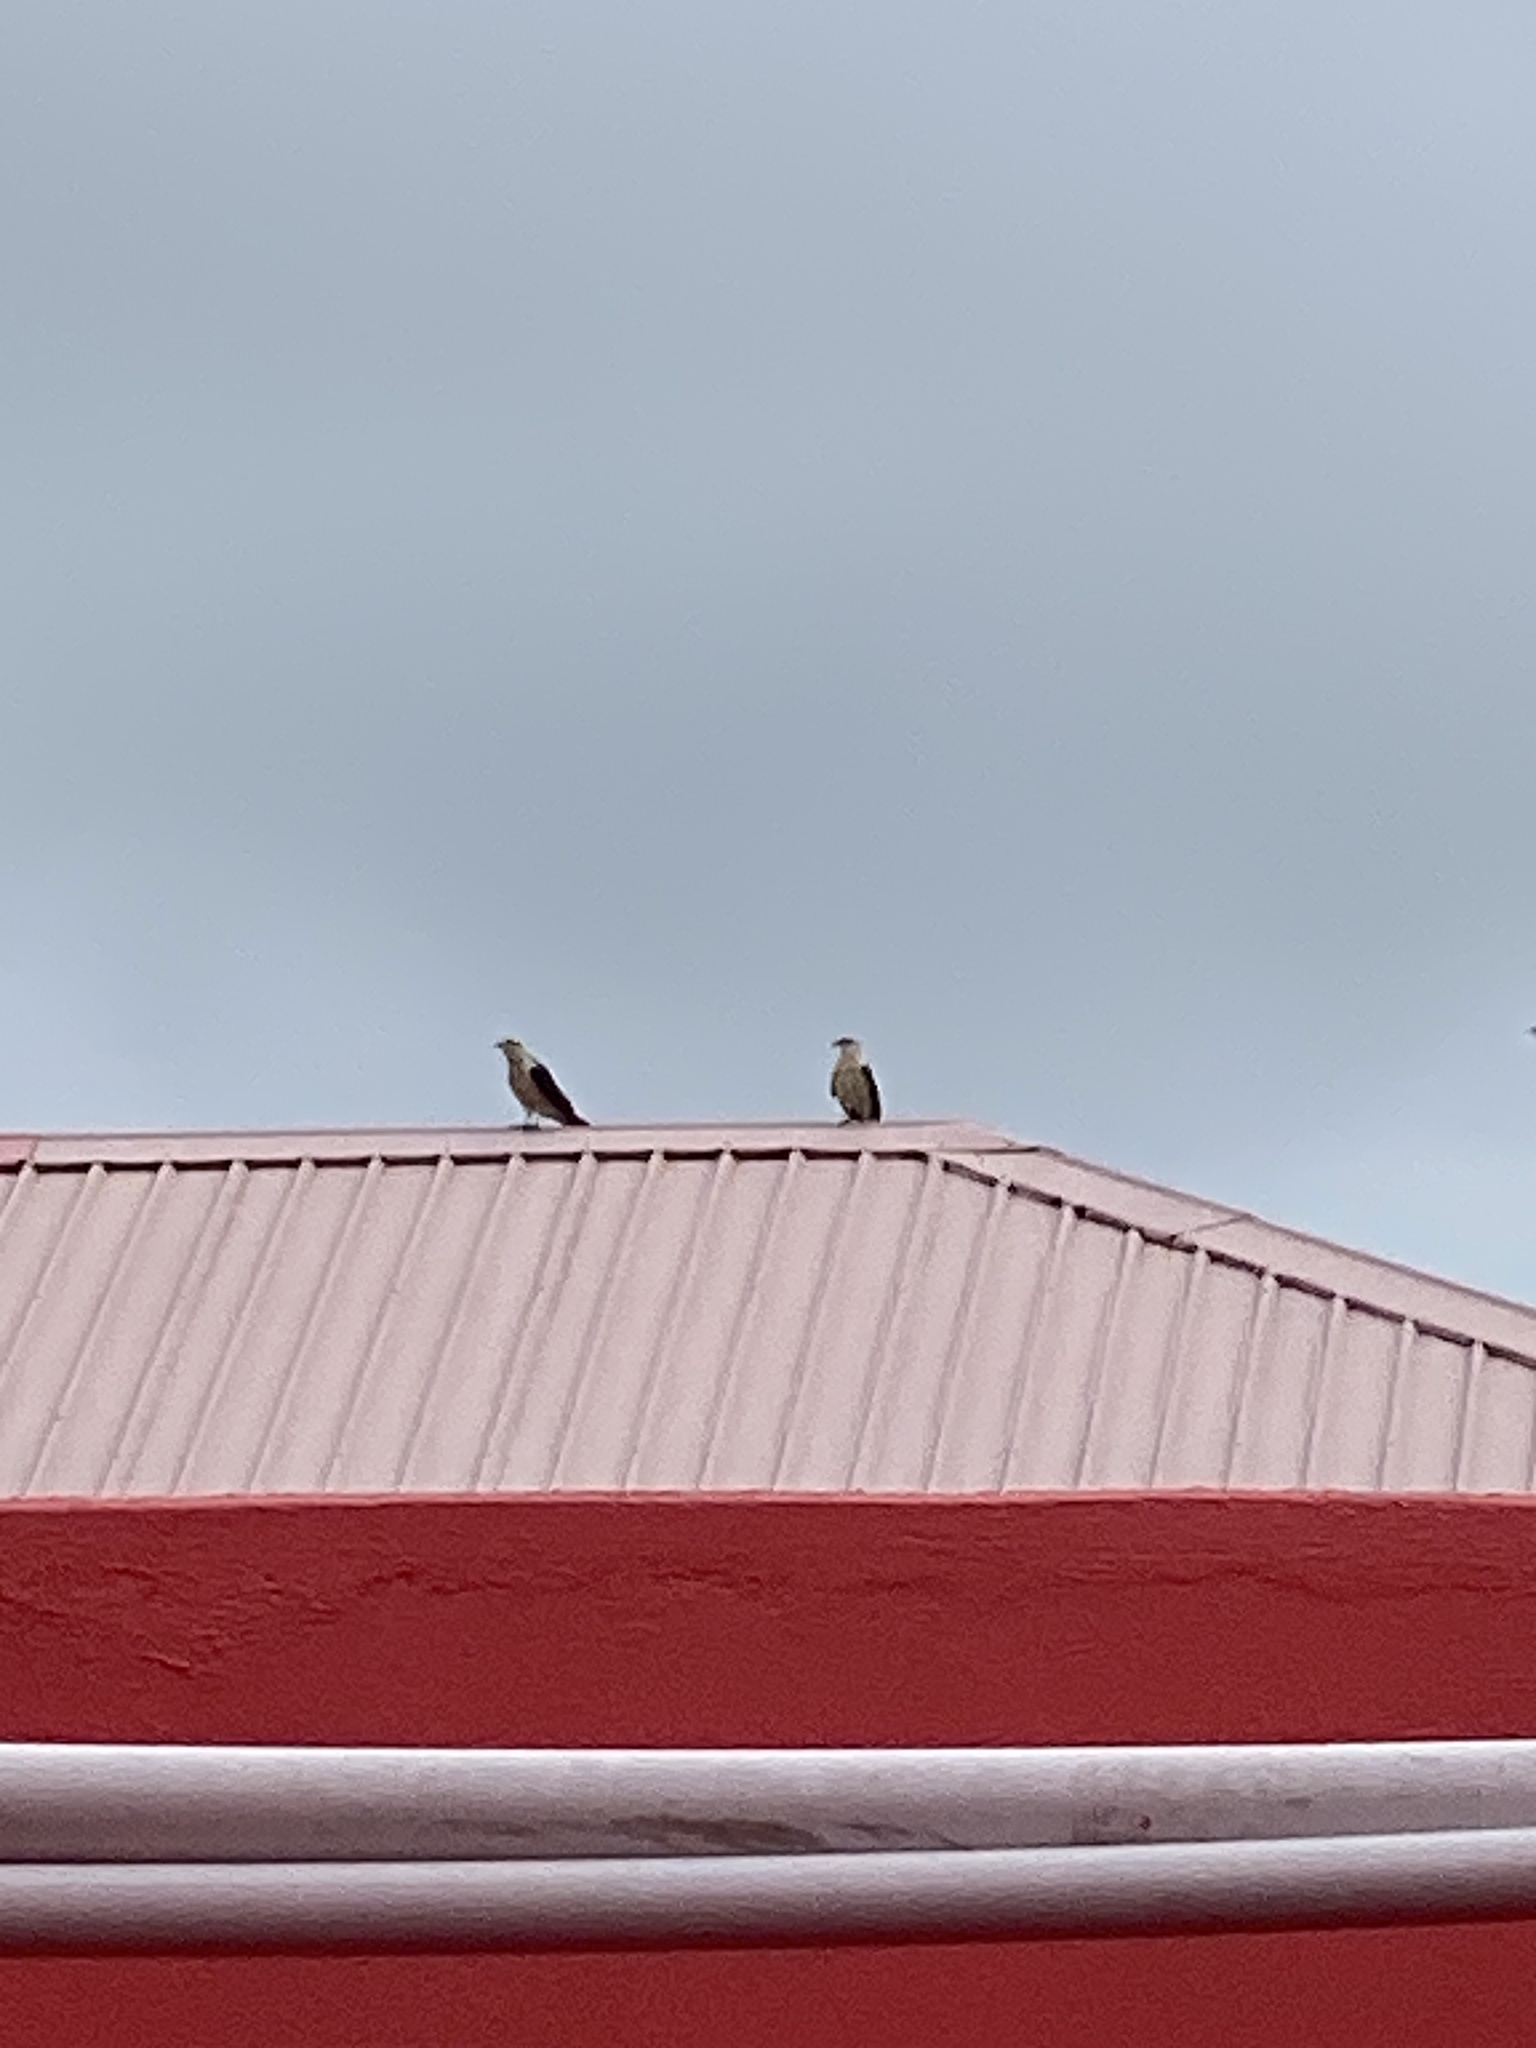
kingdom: Animalia
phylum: Chordata
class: Aves
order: Falconiformes
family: Falconidae
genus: Daptrius
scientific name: Daptrius
